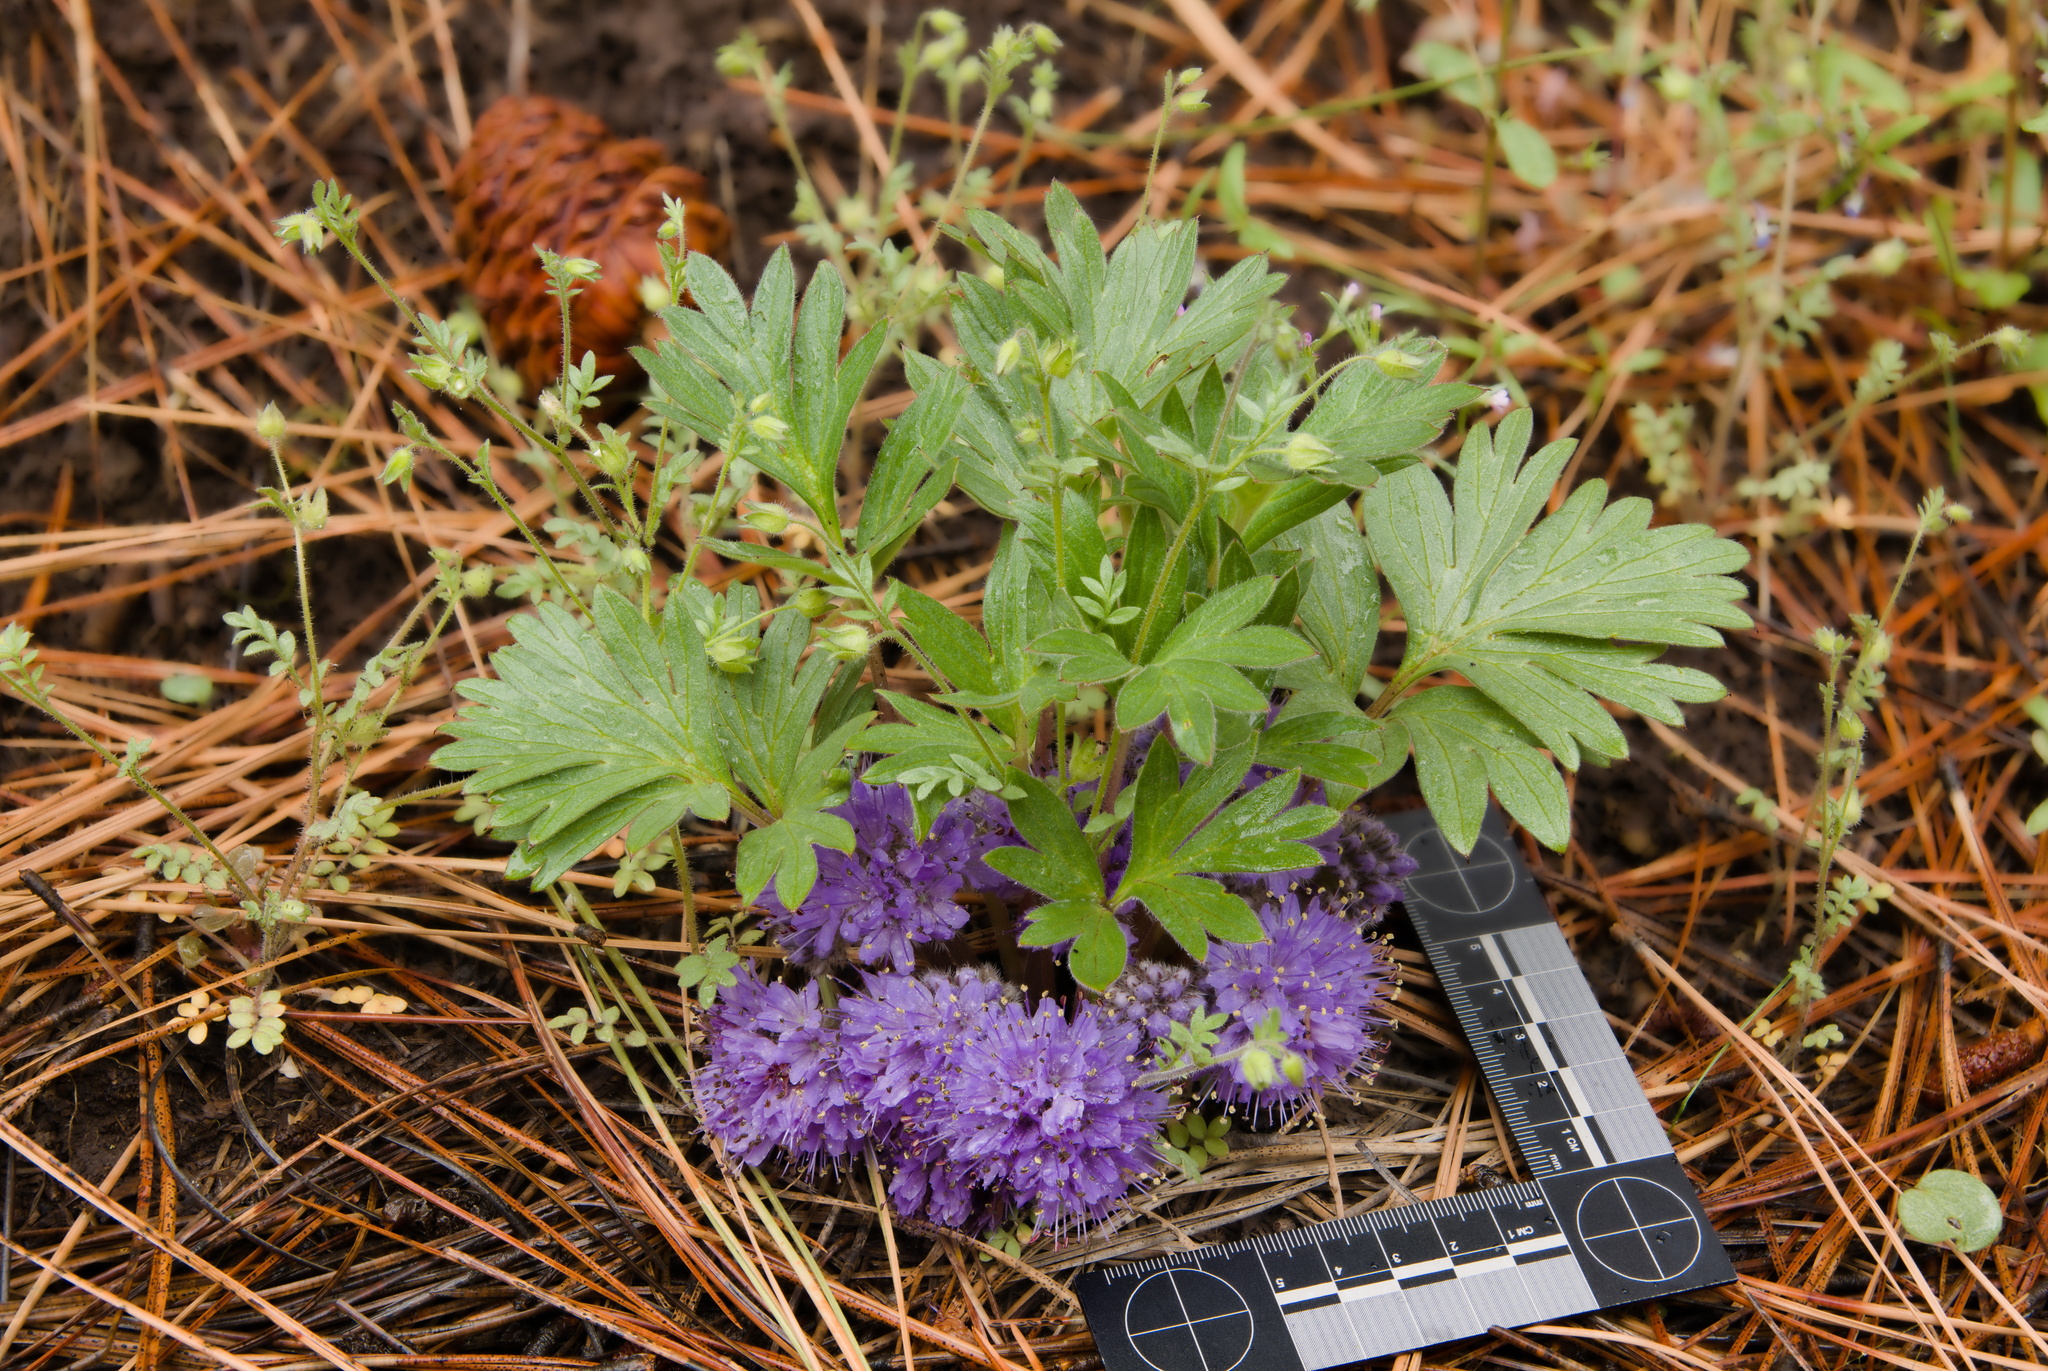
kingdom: Plantae
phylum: Tracheophyta
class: Magnoliopsida
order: Boraginales
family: Hydrophyllaceae
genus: Hydrophyllum
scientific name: Hydrophyllum alpestre
